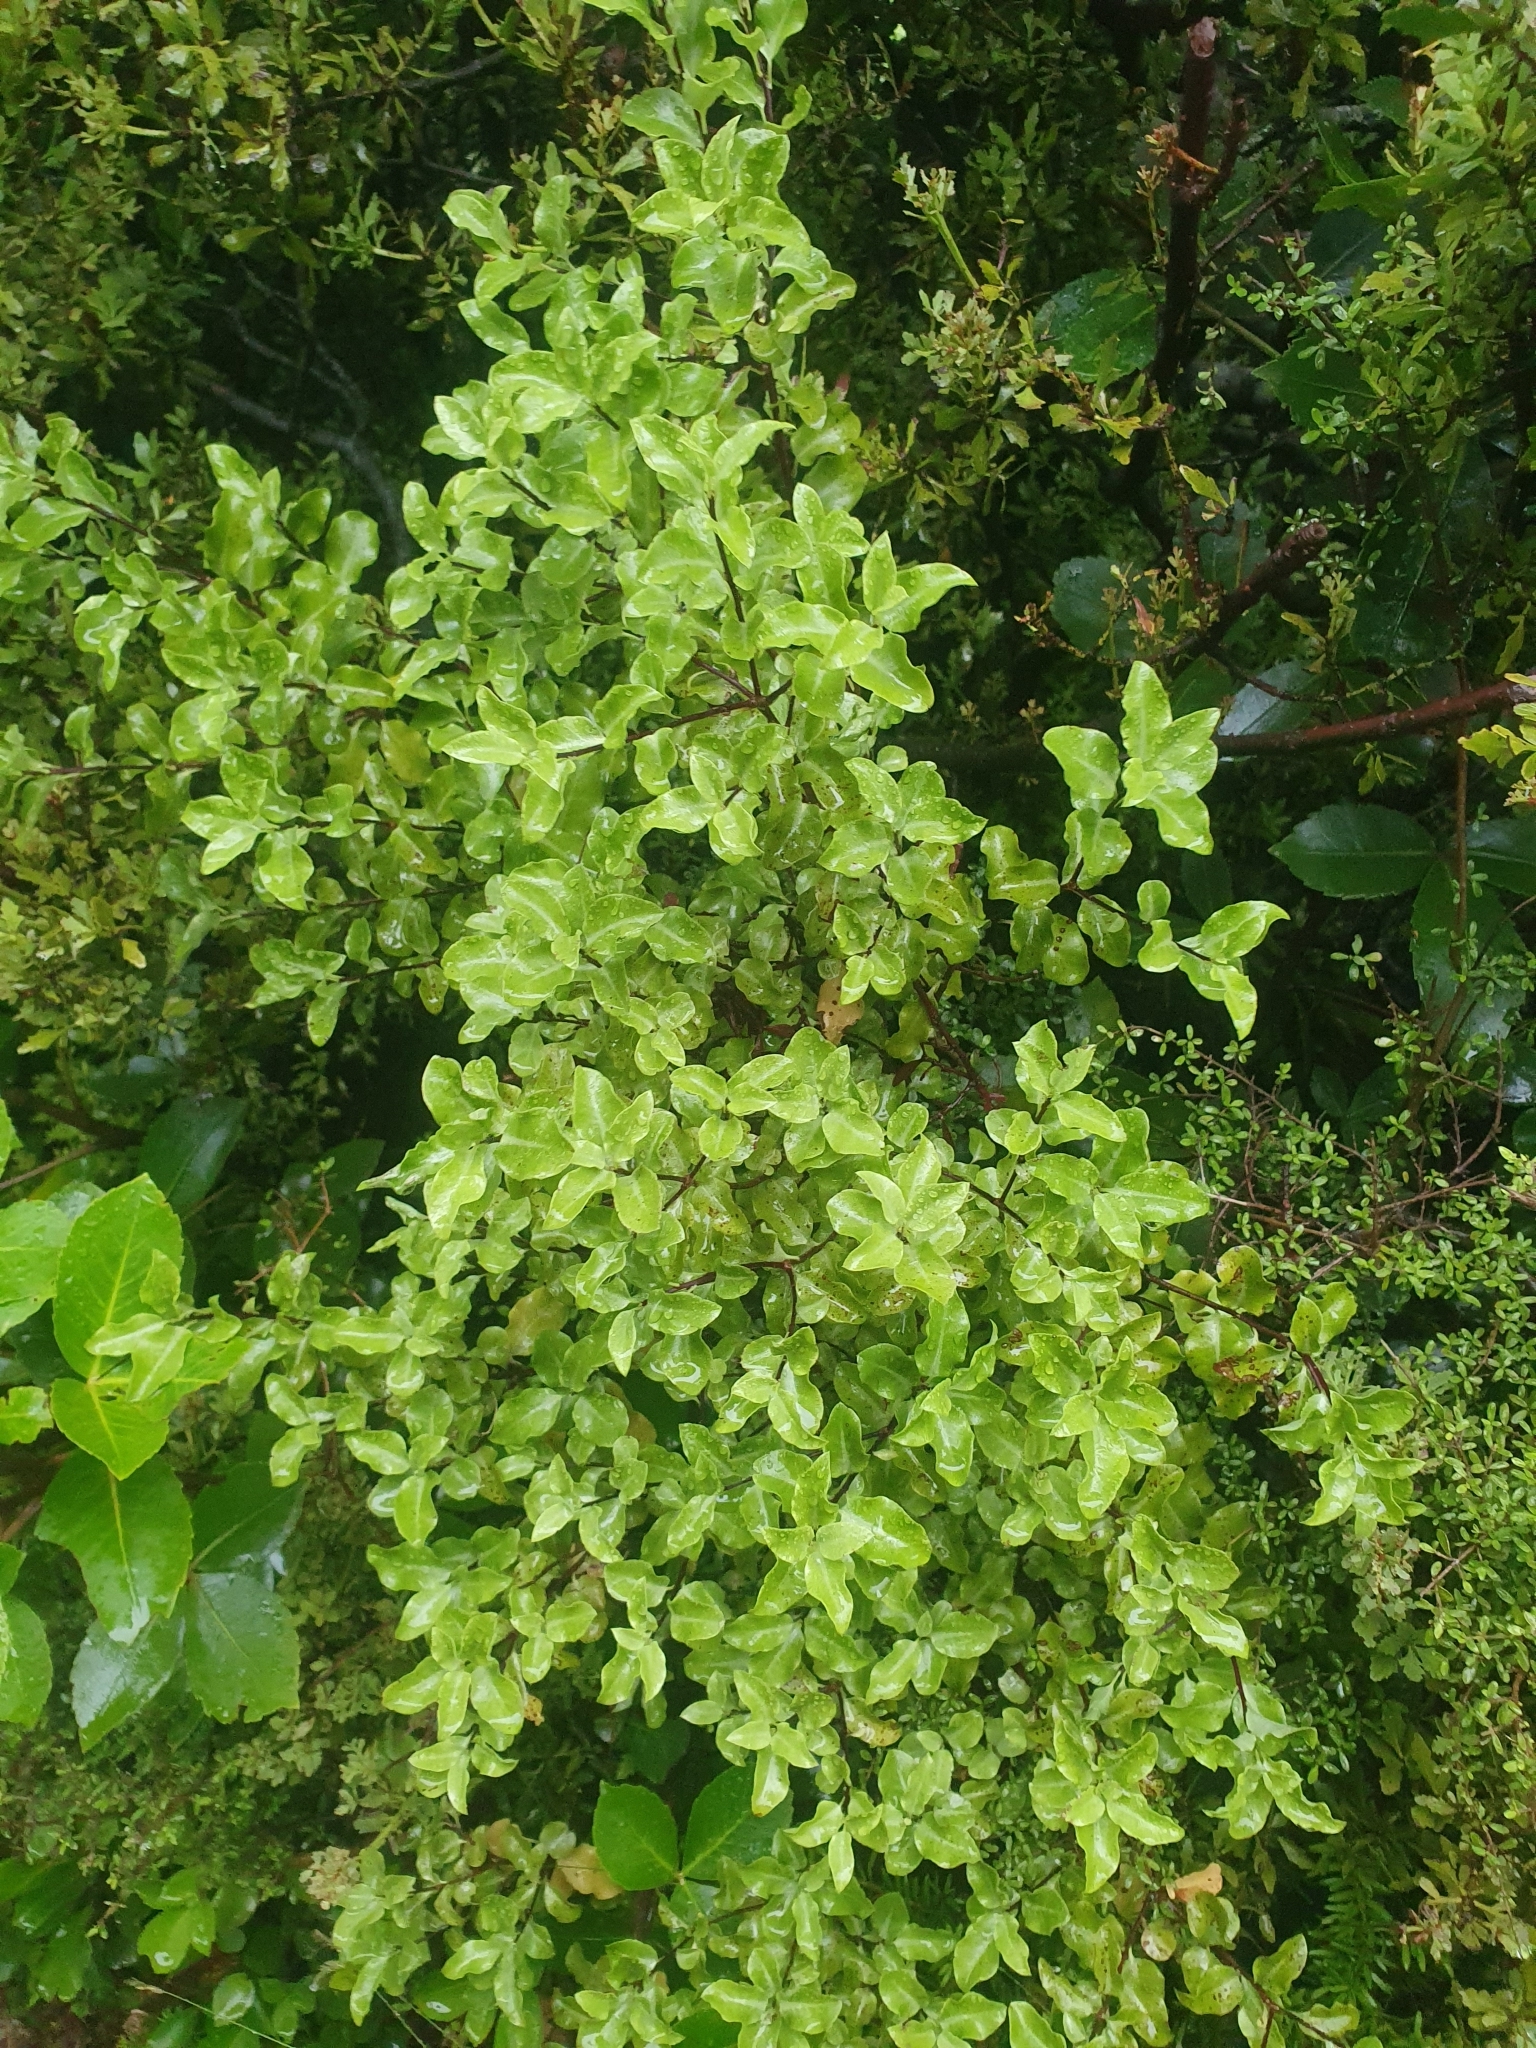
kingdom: Plantae
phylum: Tracheophyta
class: Magnoliopsida
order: Apiales
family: Pittosporaceae
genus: Pittosporum
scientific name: Pittosporum tenuifolium
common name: Kohuhu
